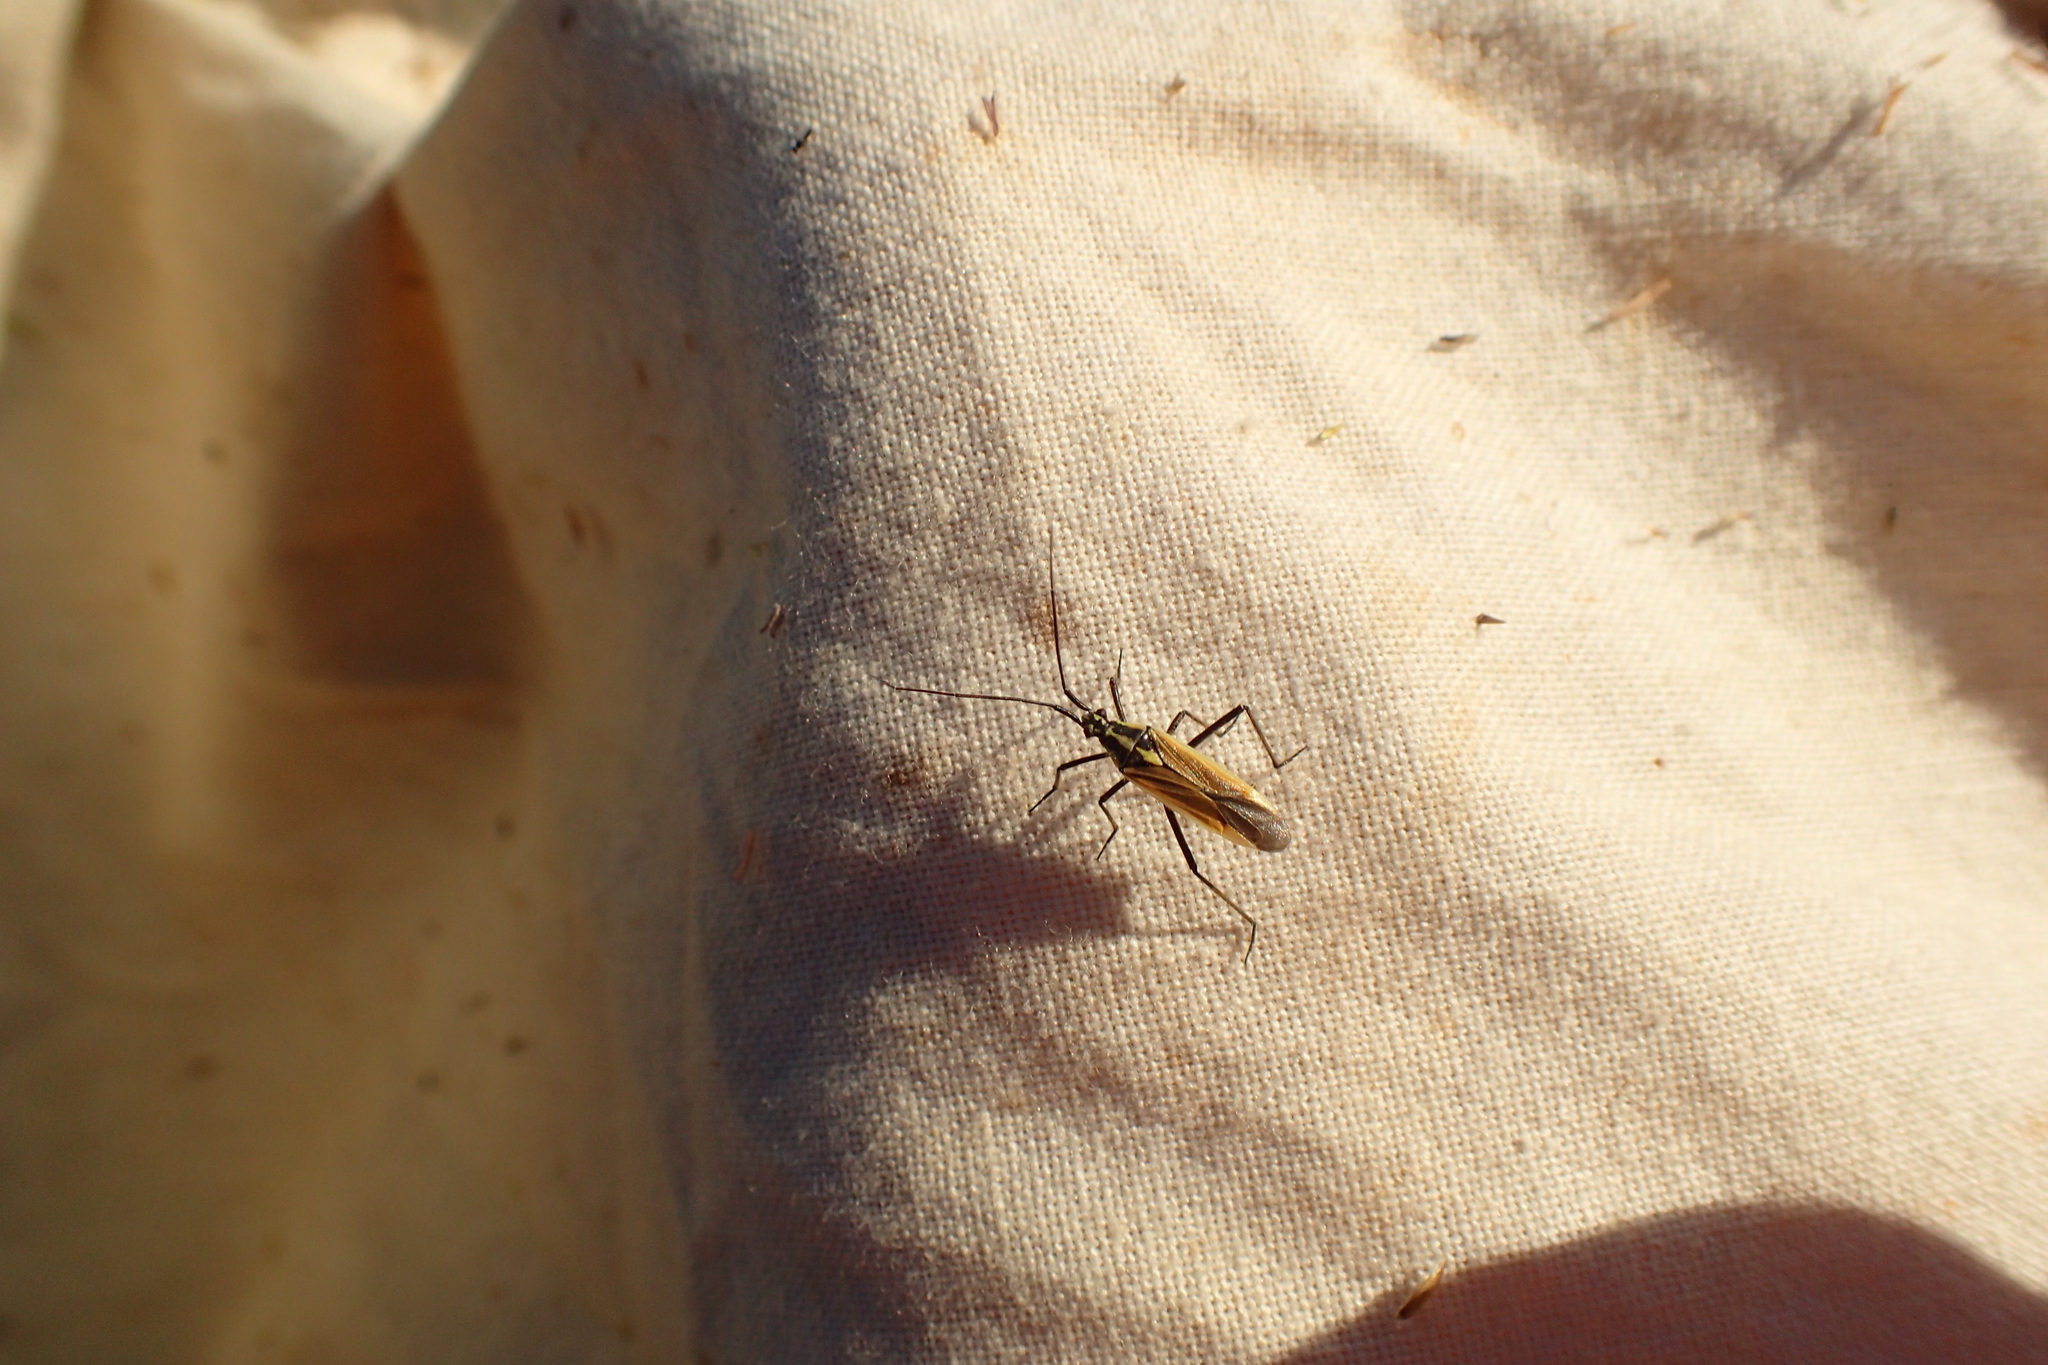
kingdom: Animalia
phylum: Arthropoda
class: Insecta
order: Hemiptera
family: Miridae
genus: Leptopterna
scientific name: Leptopterna dolabrata
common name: Meadow plant bug
